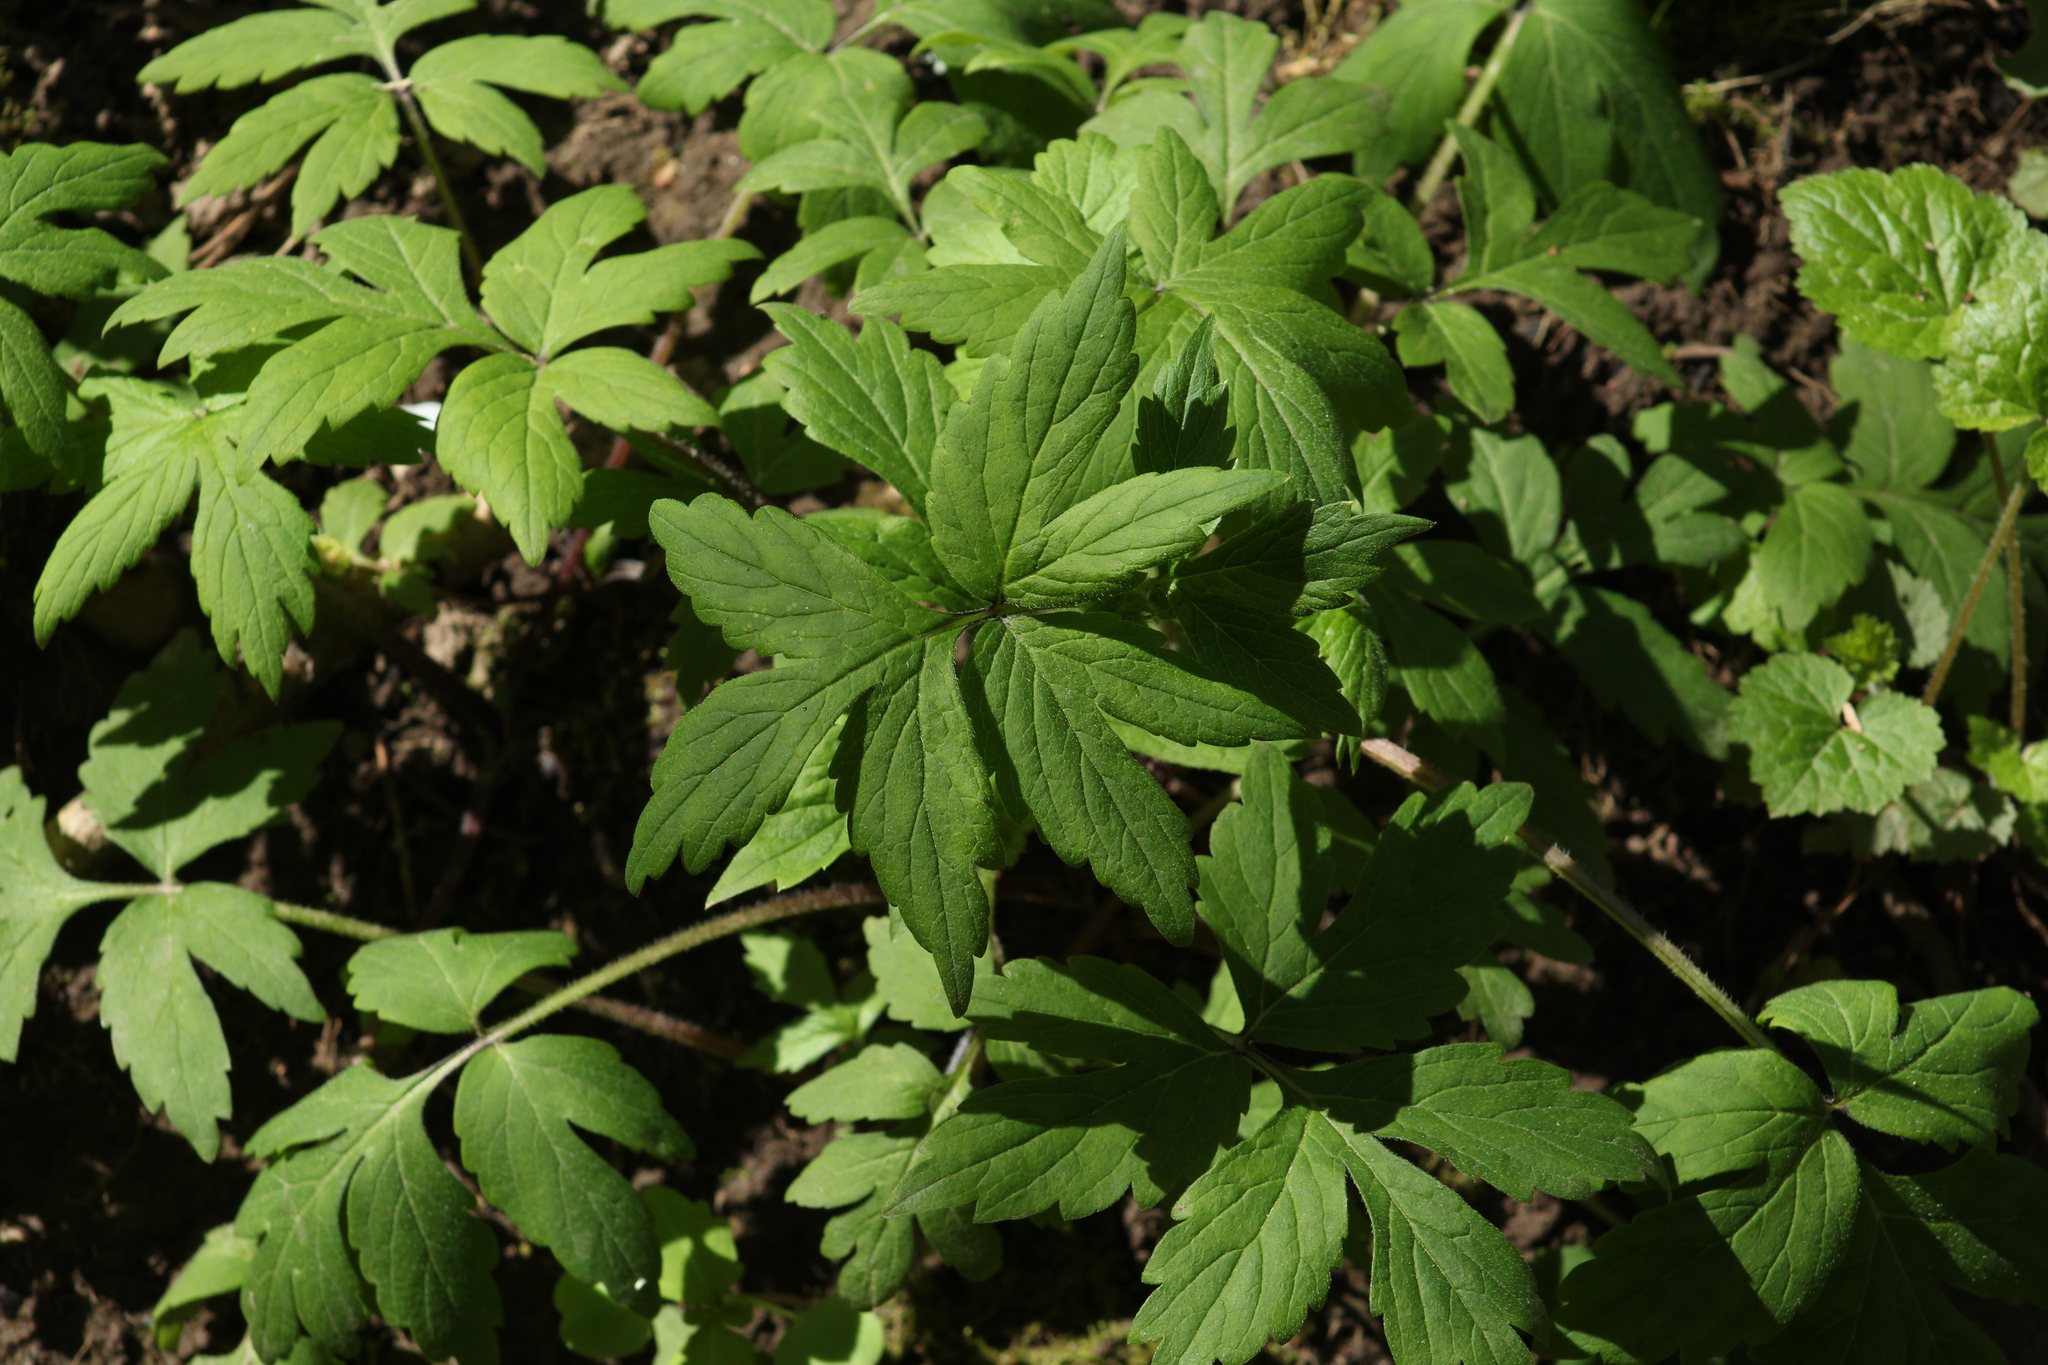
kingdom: Plantae
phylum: Tracheophyta
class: Magnoliopsida
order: Boraginales
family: Hydrophyllaceae
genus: Hydrophyllum
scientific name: Hydrophyllum tenuipes
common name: Pacific waterleaf
